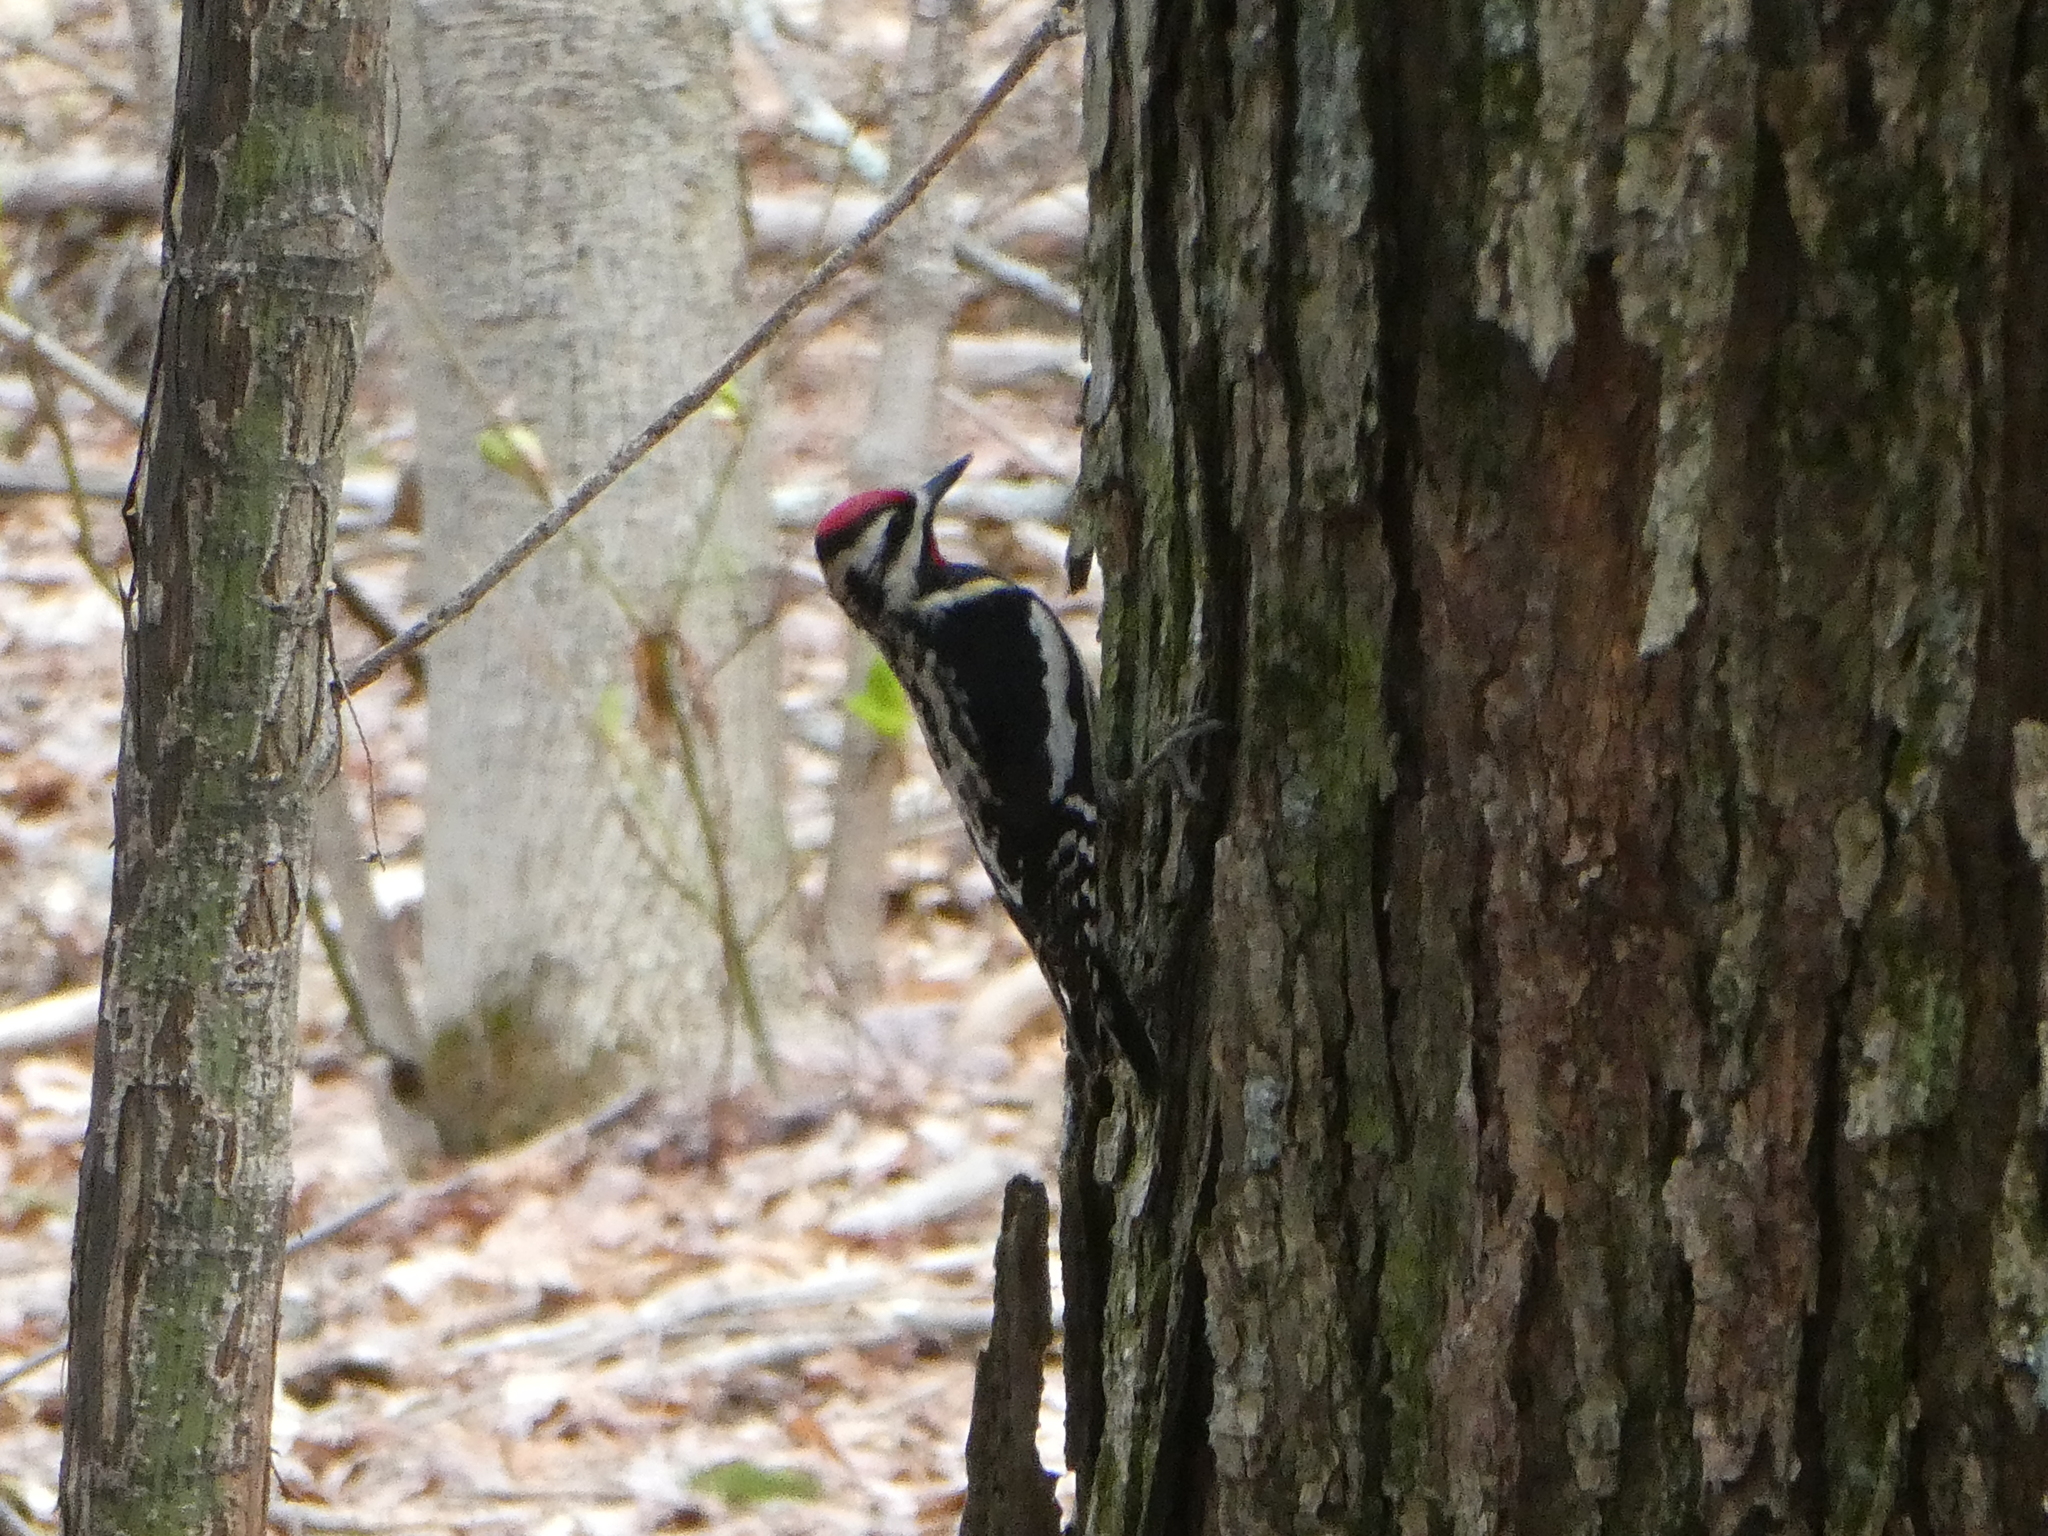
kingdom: Animalia
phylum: Chordata
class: Aves
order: Piciformes
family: Picidae
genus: Sphyrapicus
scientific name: Sphyrapicus varius
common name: Yellow-bellied sapsucker
